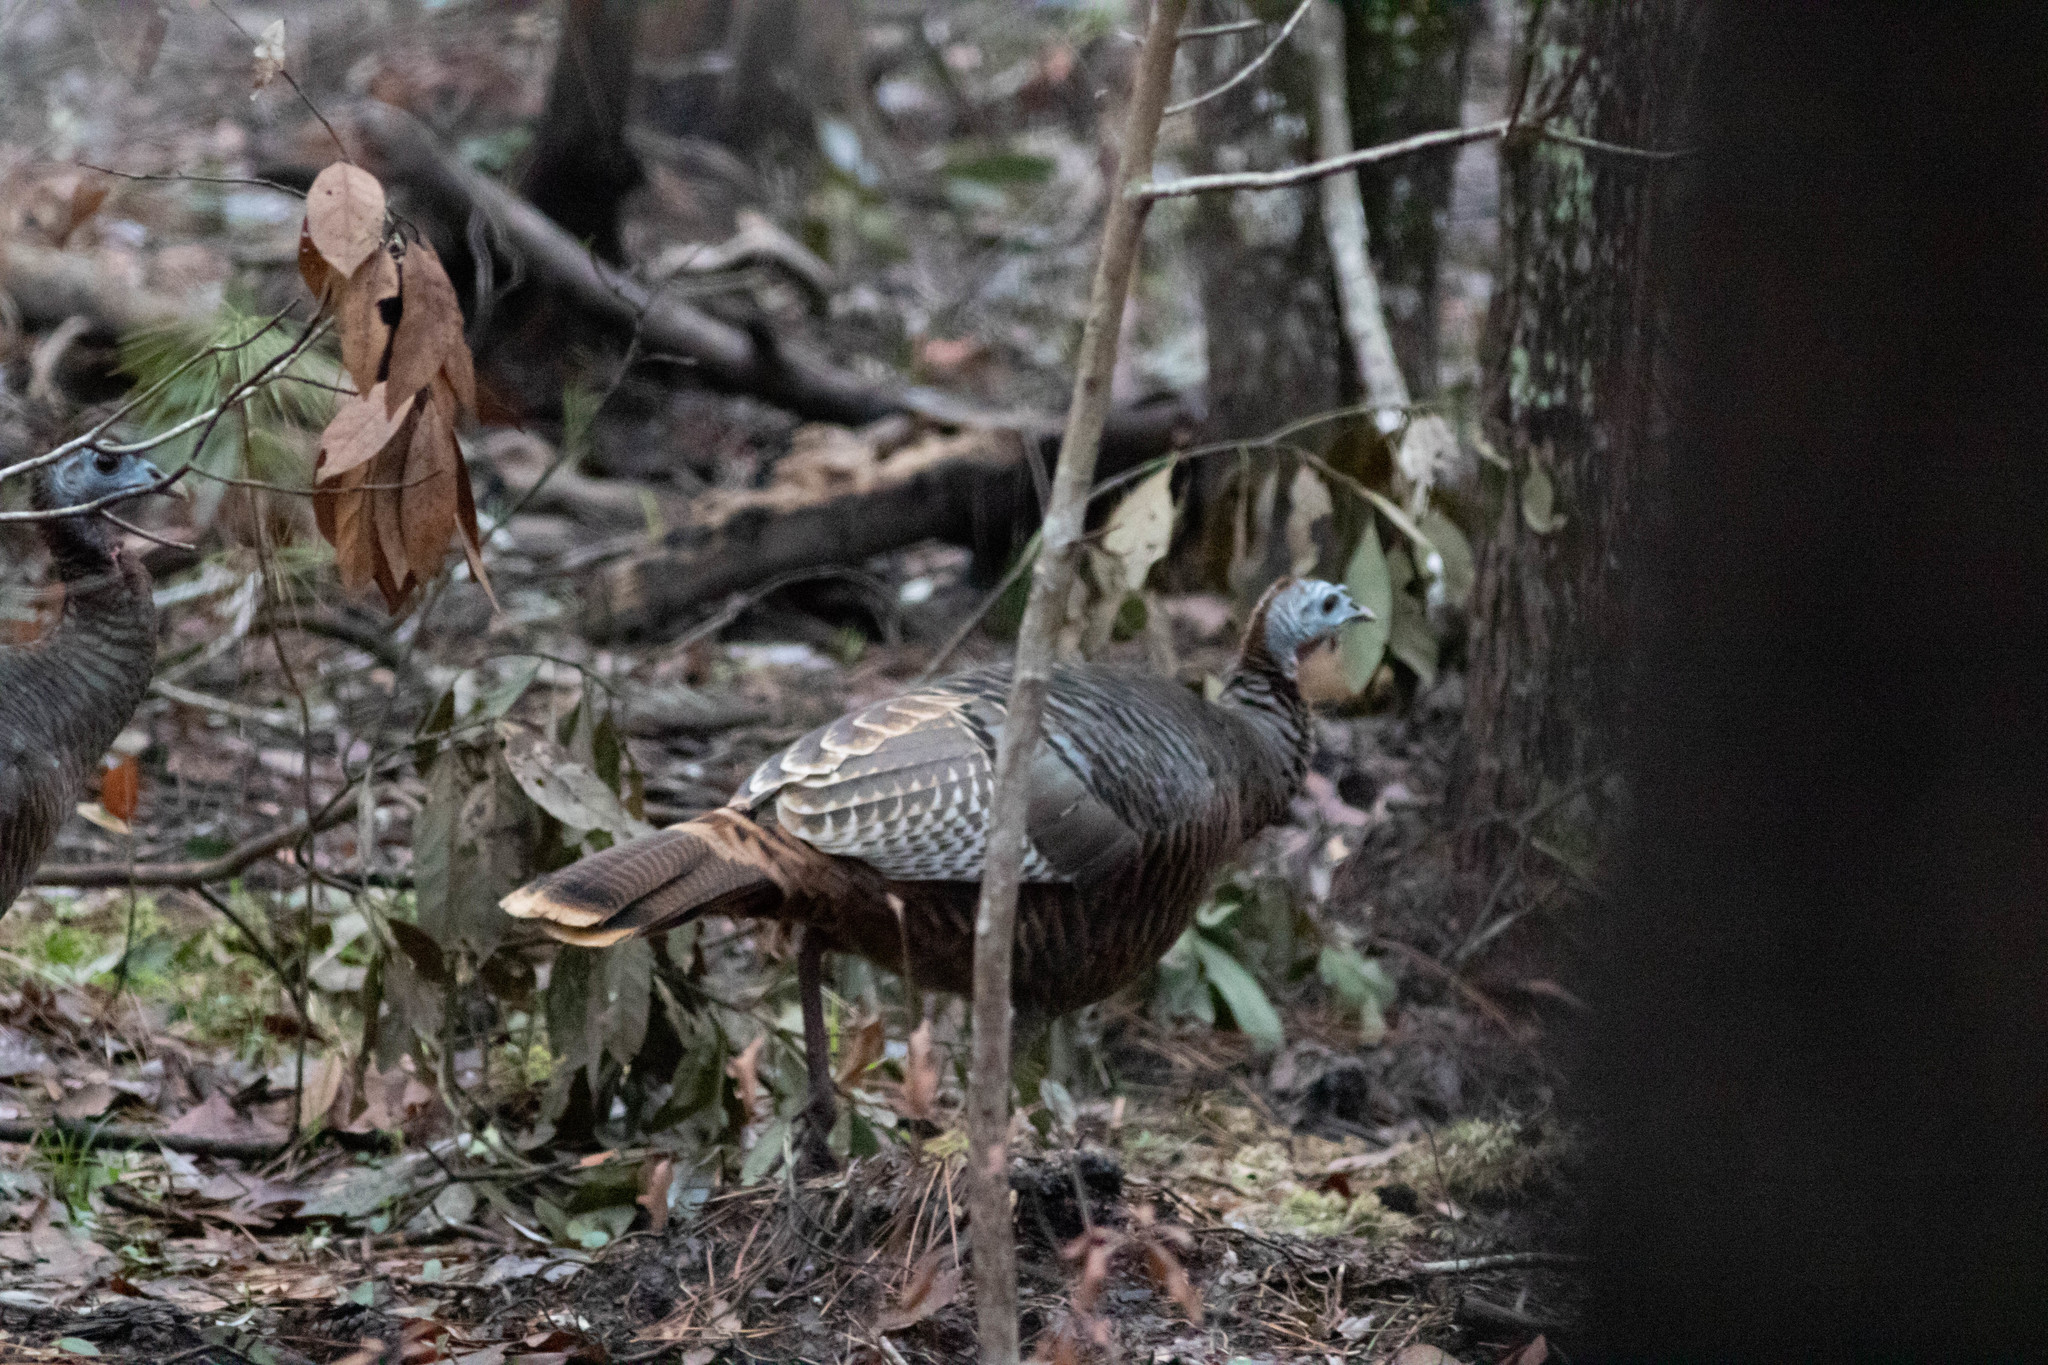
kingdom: Animalia
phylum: Chordata
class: Aves
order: Galliformes
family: Phasianidae
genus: Meleagris
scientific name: Meleagris gallopavo
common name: Wild turkey
